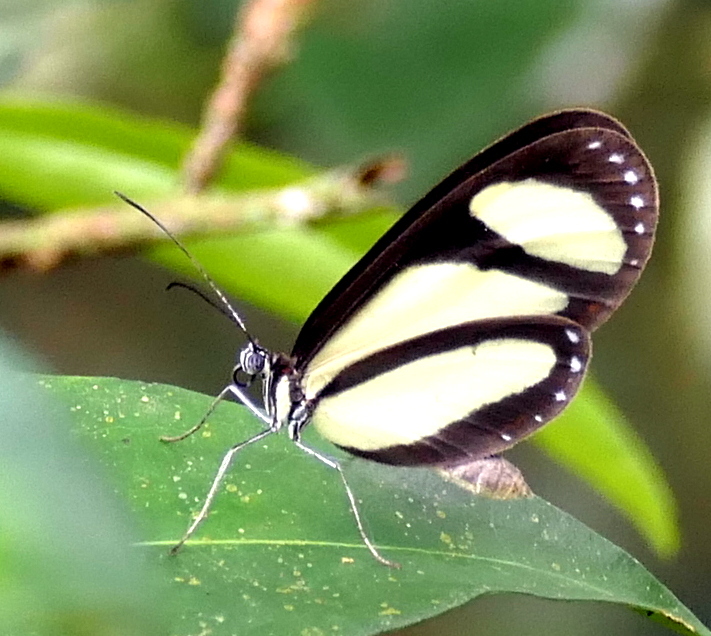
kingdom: Animalia
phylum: Arthropoda
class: Insecta
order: Lepidoptera
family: Nymphalidae
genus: Heteroscada
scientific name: Heteroscada reckia
